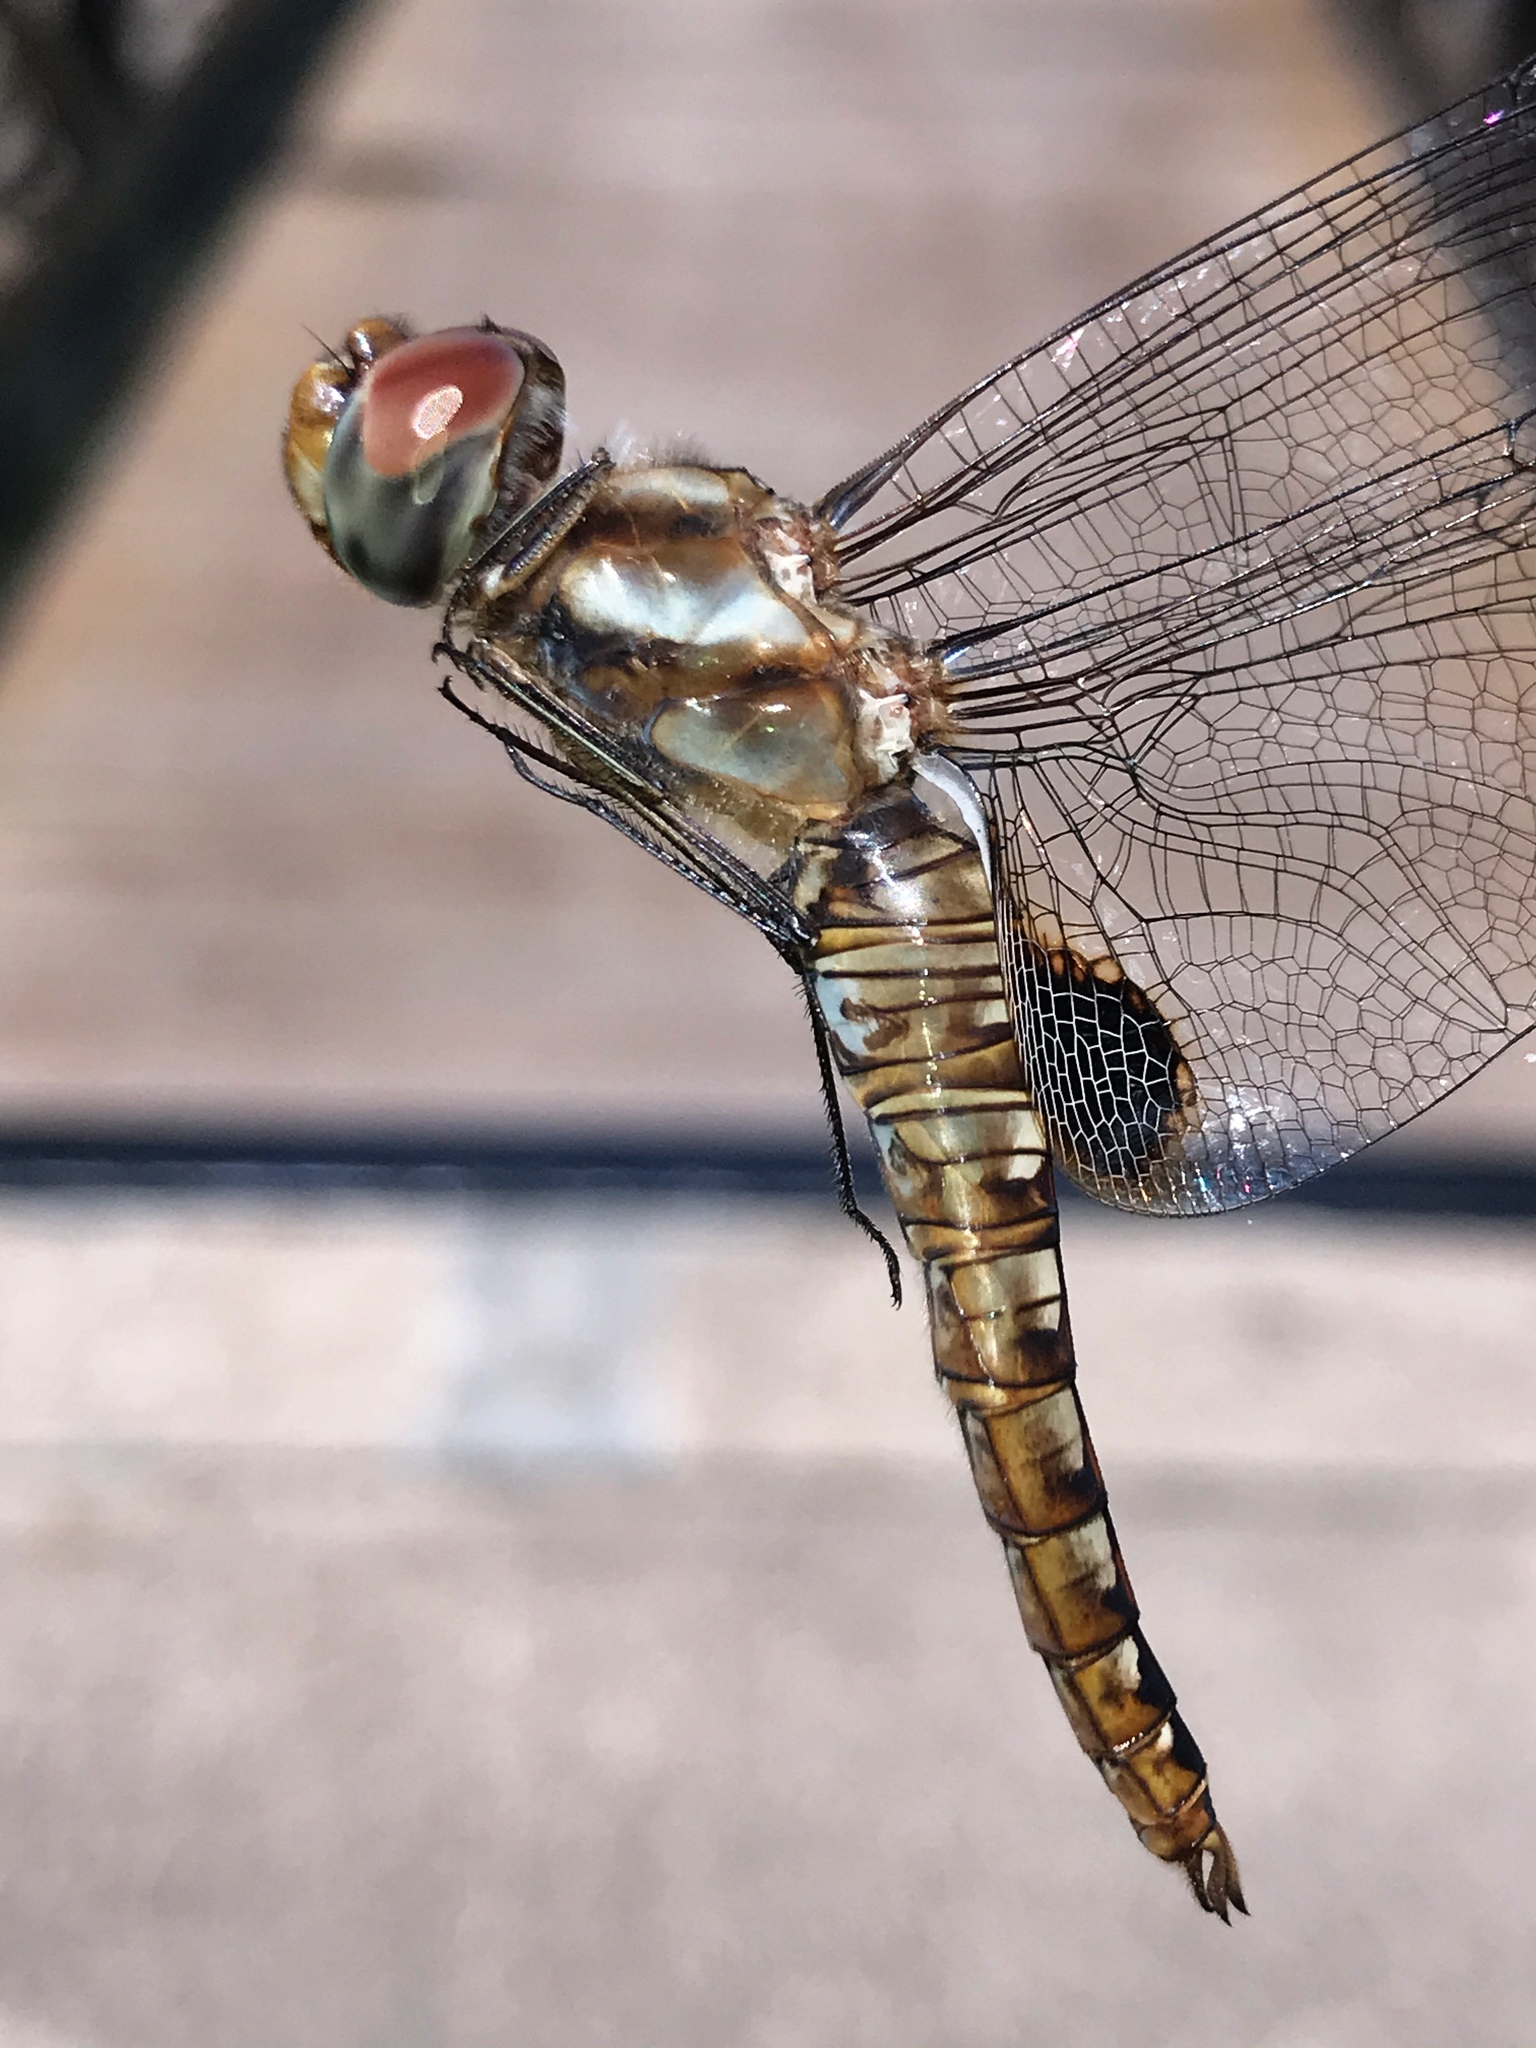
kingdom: Animalia
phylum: Arthropoda
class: Insecta
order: Odonata
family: Libellulidae
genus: Pantala
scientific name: Pantala hymenaea
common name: Spot-winged glider
